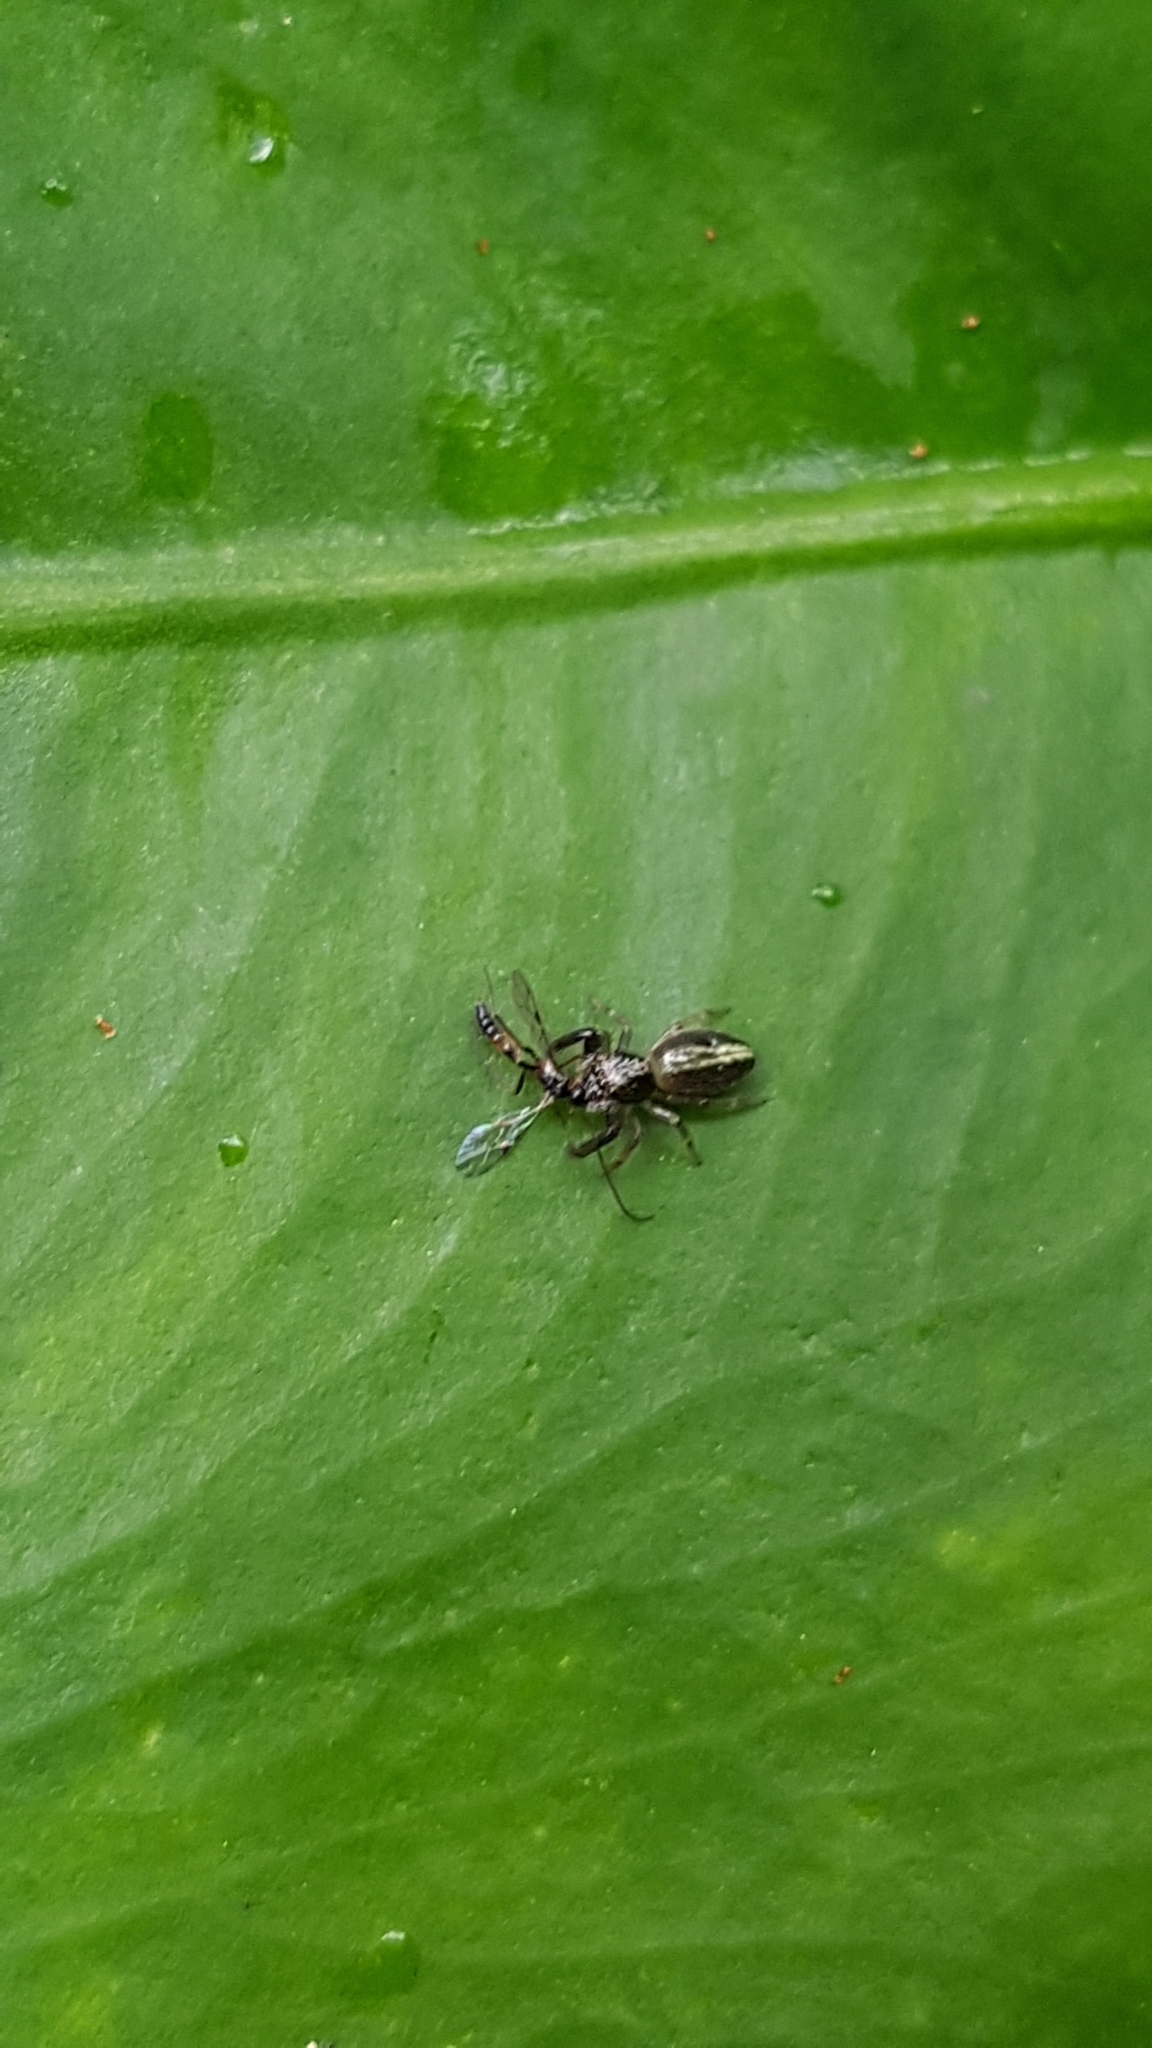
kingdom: Animalia
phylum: Arthropoda
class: Arachnida
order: Araneae
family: Salticidae
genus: Trite
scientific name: Trite planiceps
